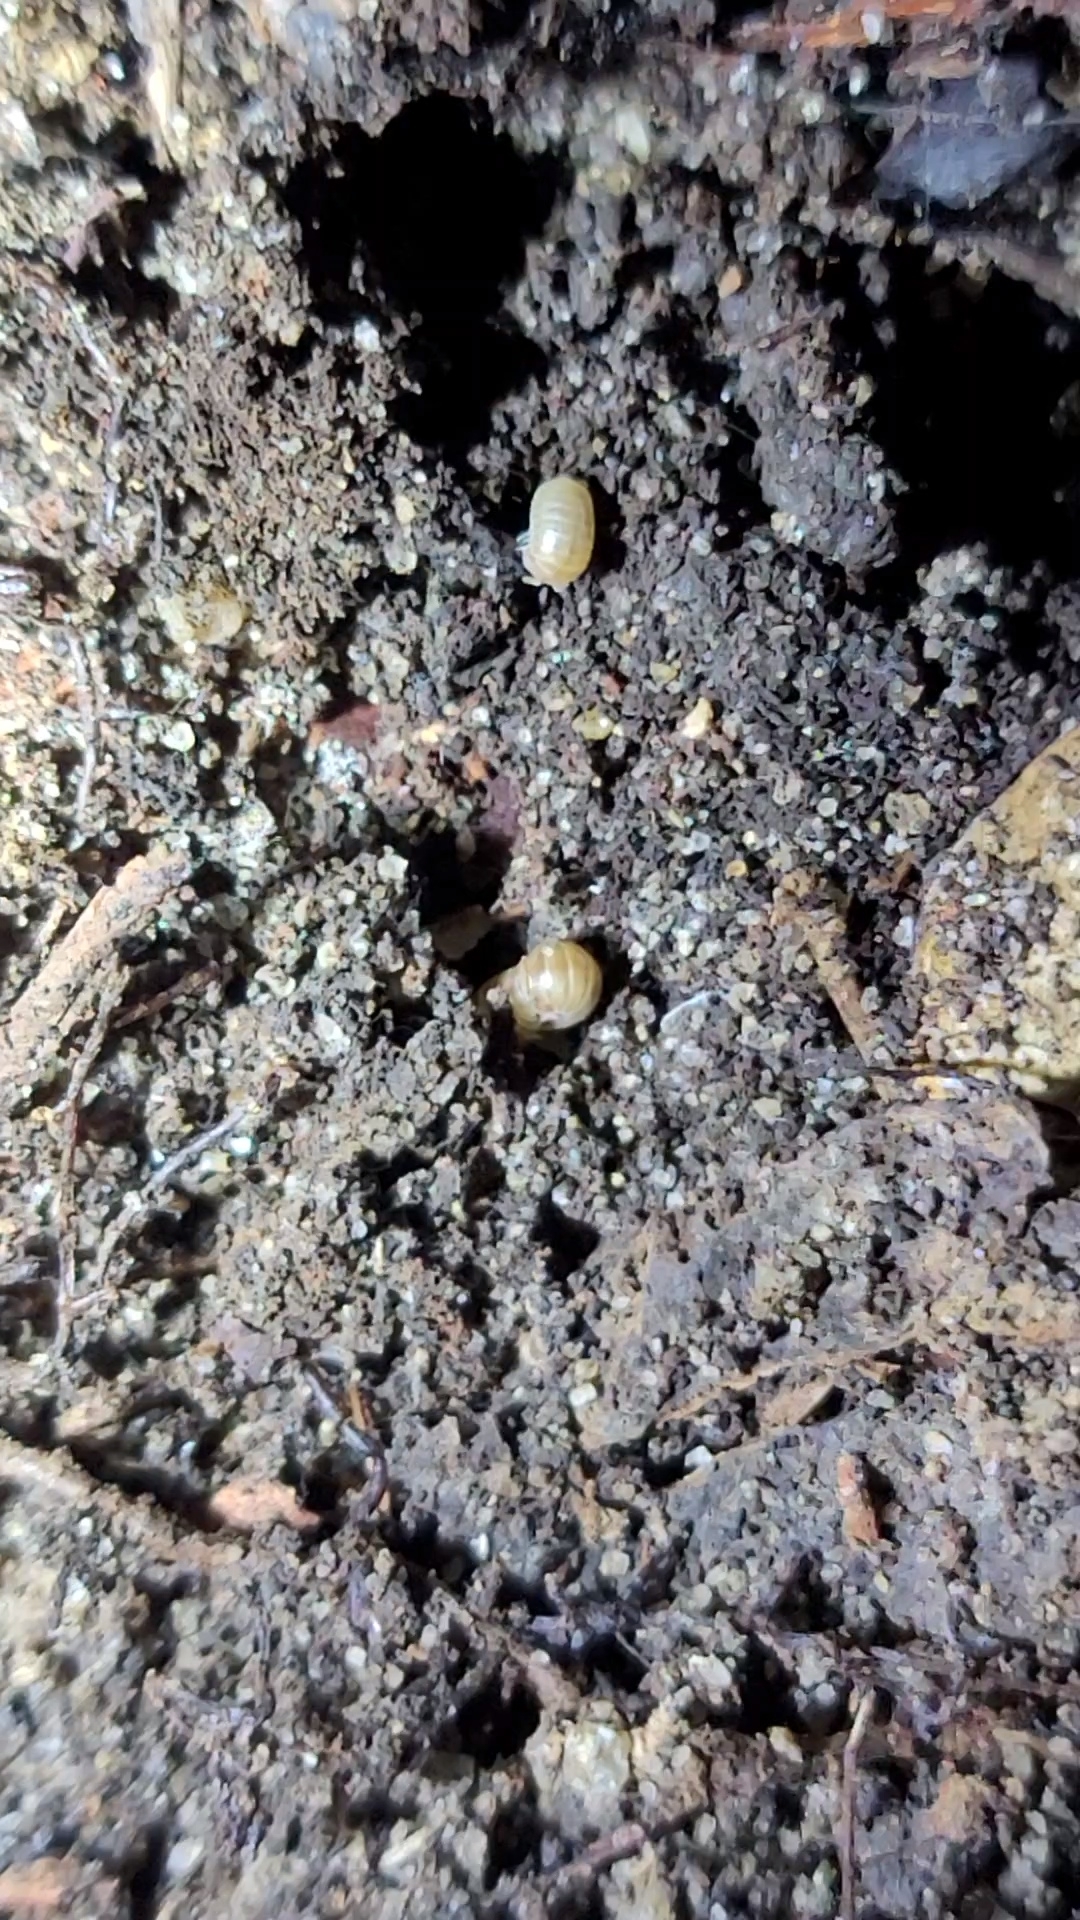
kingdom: Animalia
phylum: Arthropoda
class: Diplopoda
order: Glomerida
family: Glomeridae
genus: Onomeris
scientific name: Onomeris underwoodii
